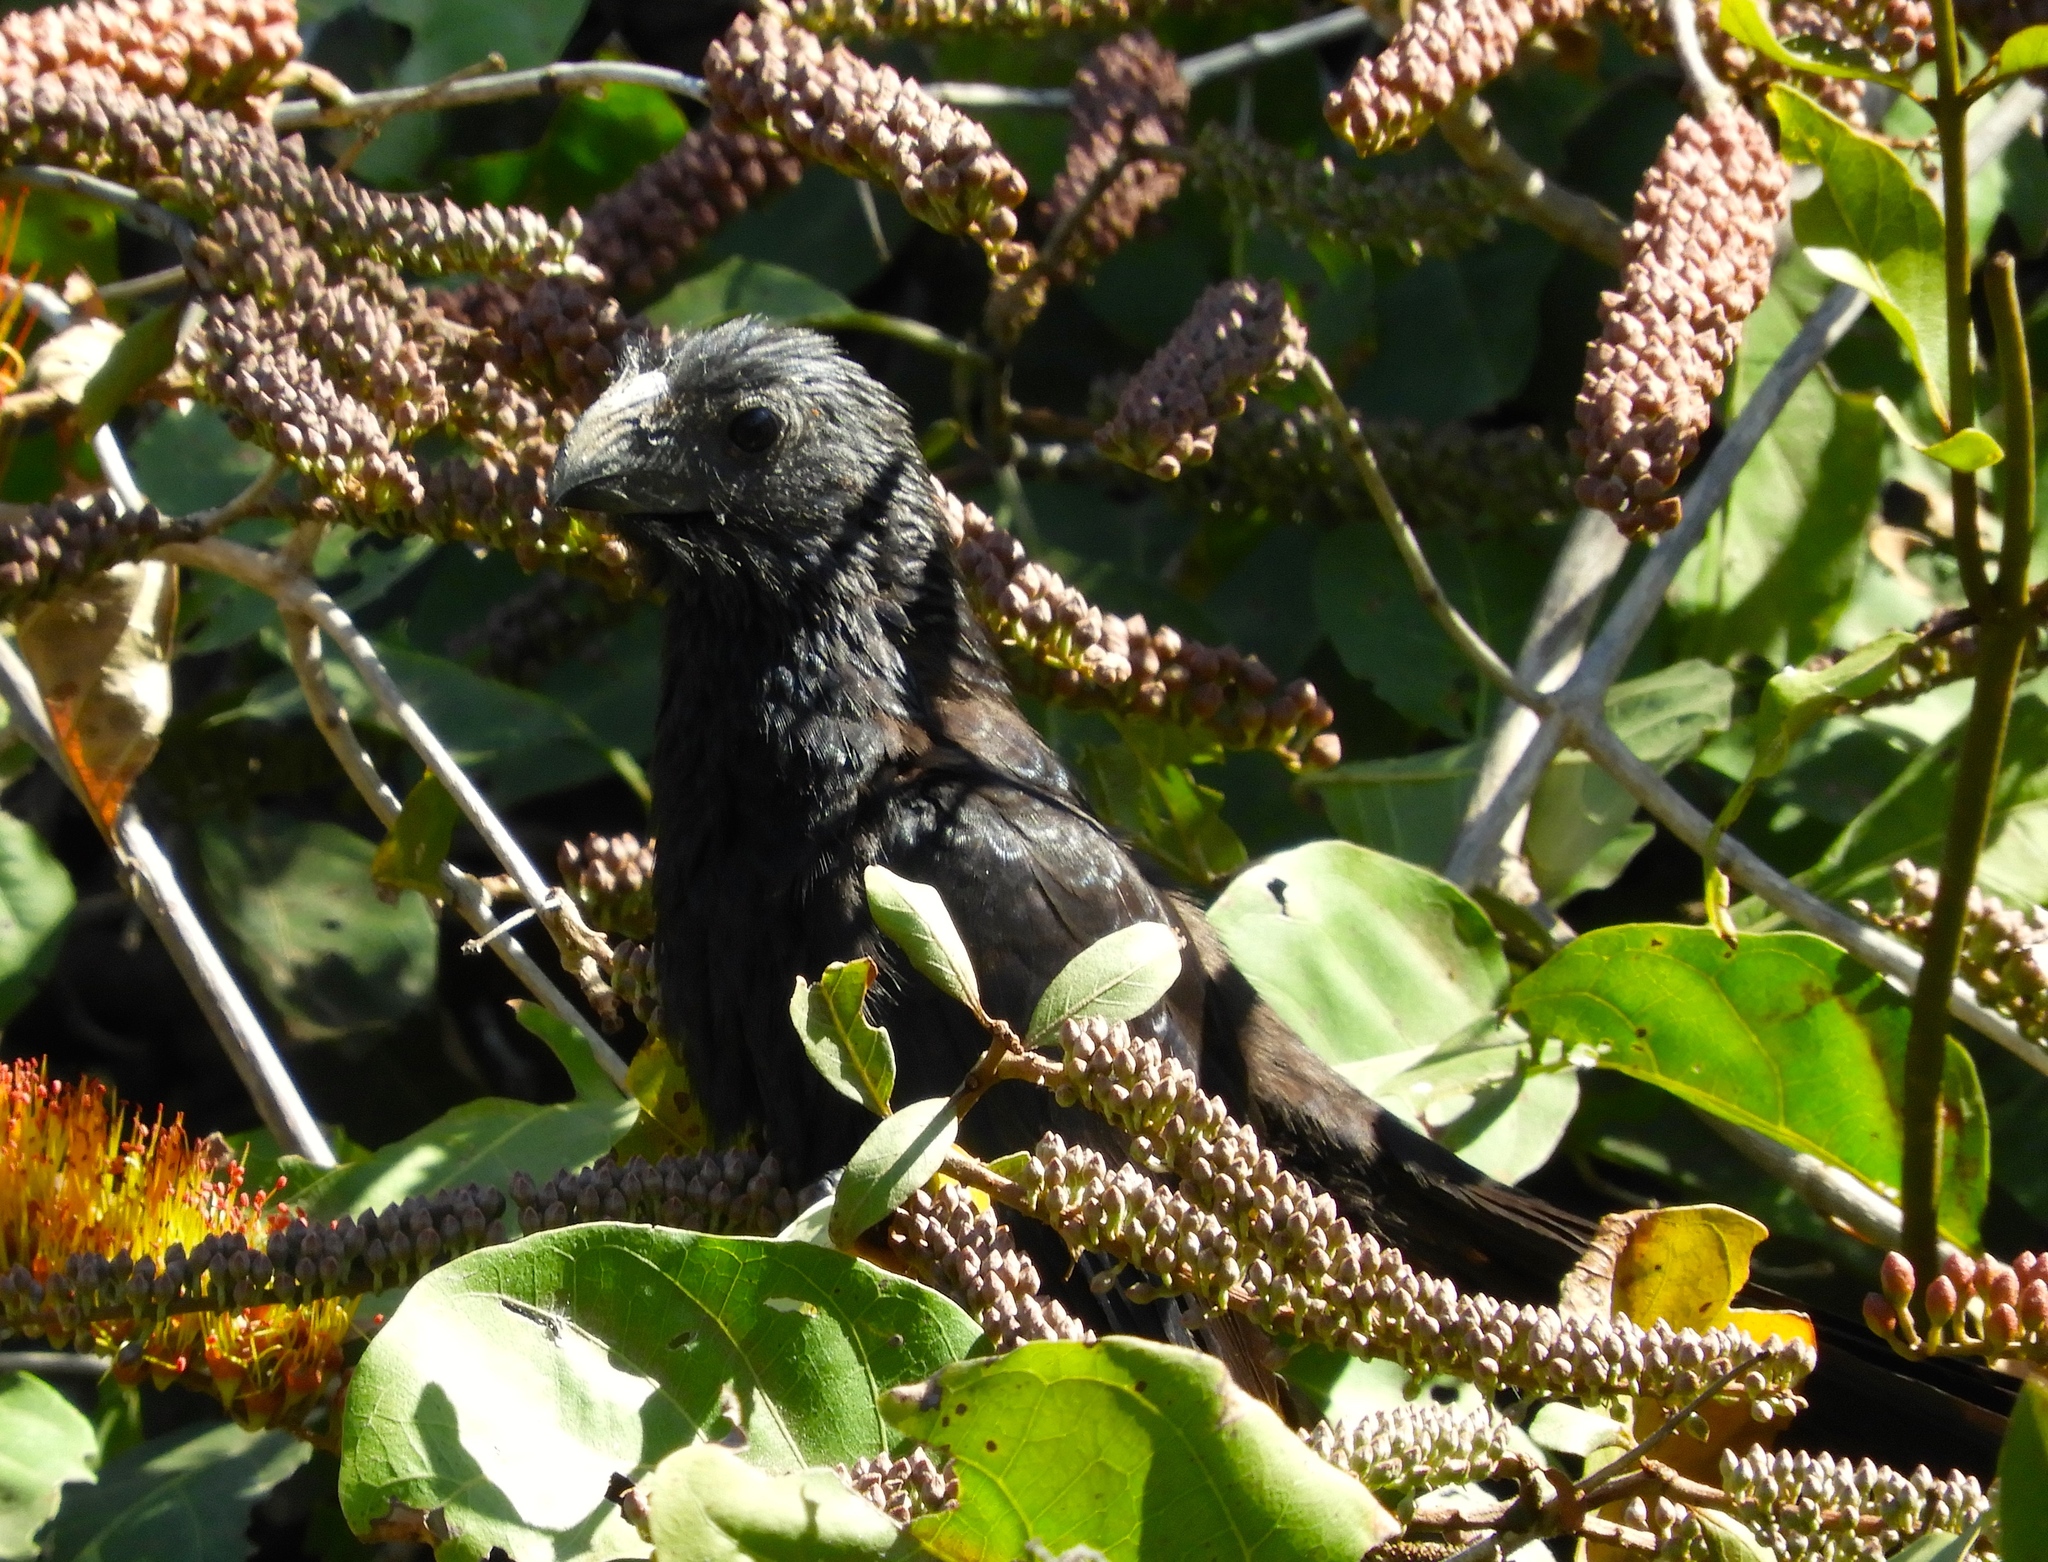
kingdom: Animalia
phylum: Chordata
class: Aves
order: Cuculiformes
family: Cuculidae
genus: Crotophaga
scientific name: Crotophaga sulcirostris
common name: Groove-billed ani
